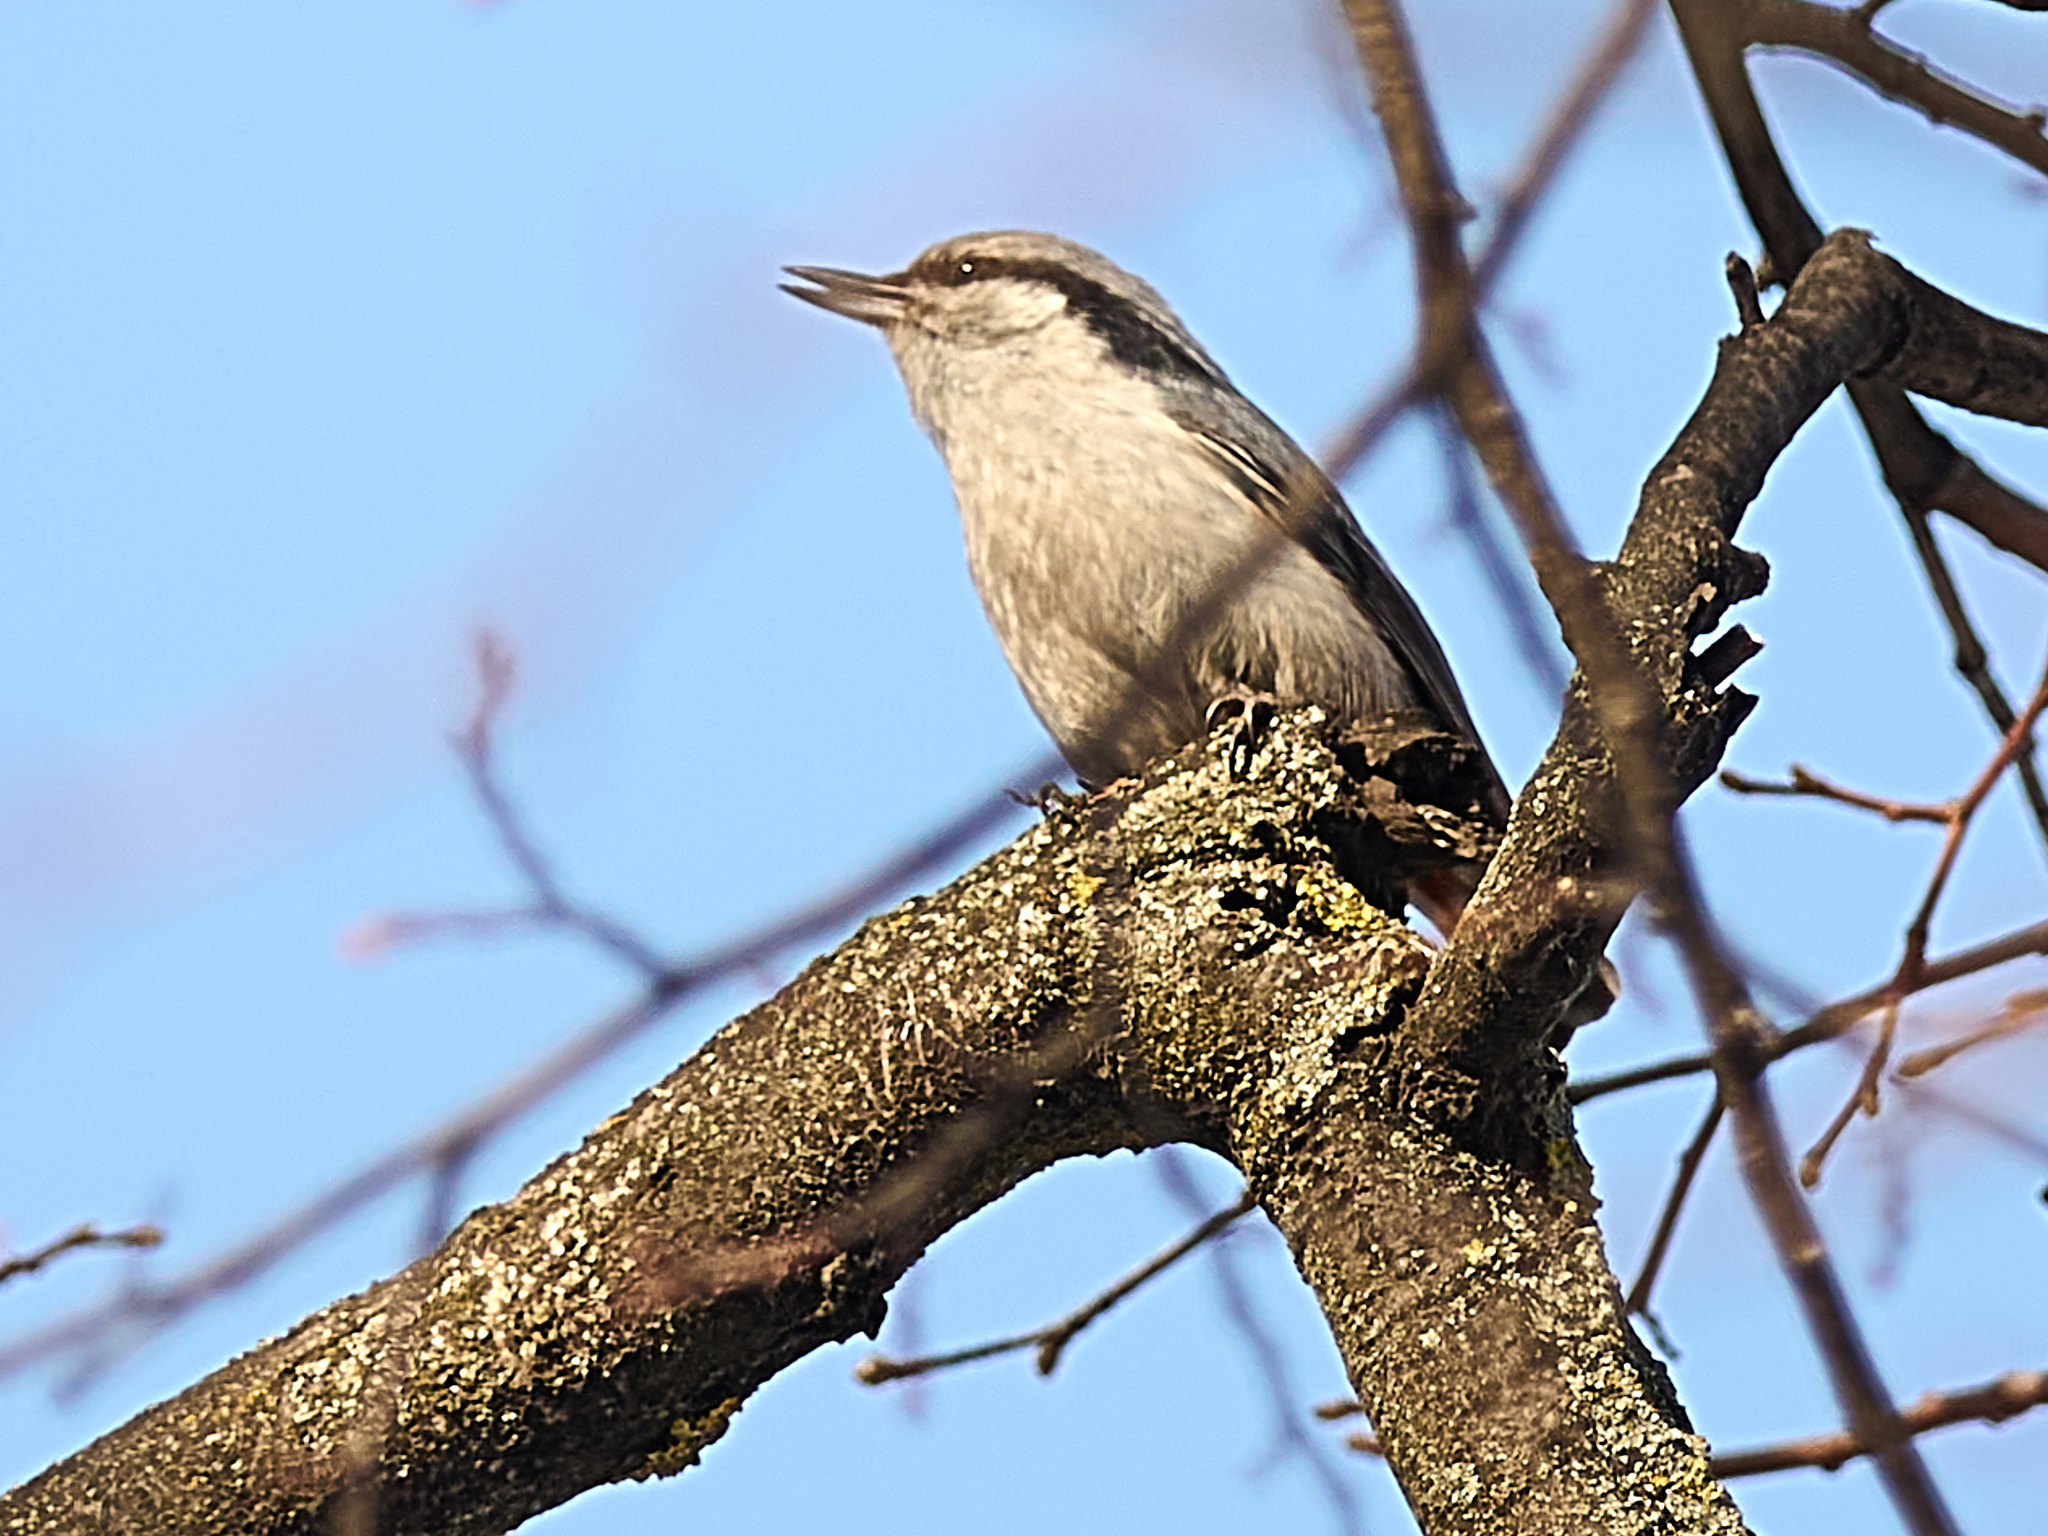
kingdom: Animalia
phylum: Chordata
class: Aves
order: Passeriformes
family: Sittidae
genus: Sitta
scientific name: Sitta europaea
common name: Eurasian nuthatch
